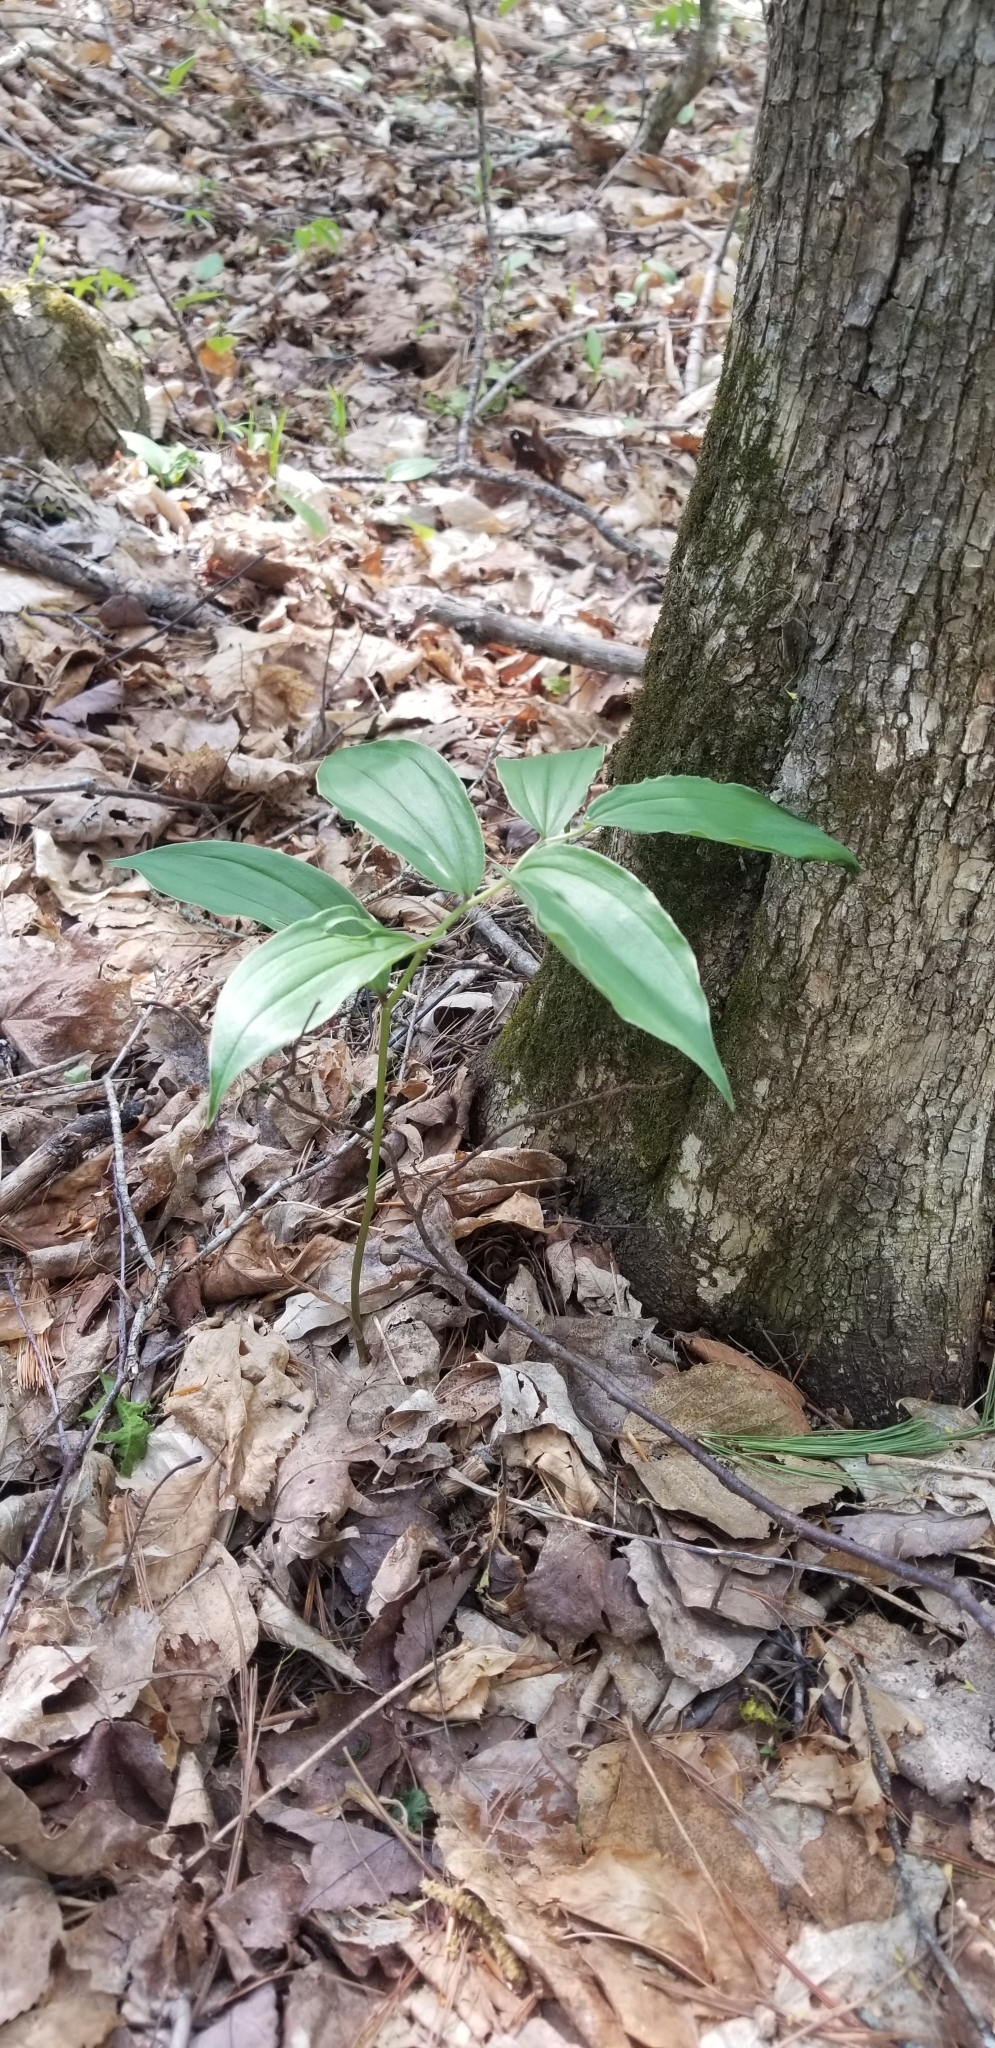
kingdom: Plantae
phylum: Tracheophyta
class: Liliopsida
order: Asparagales
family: Asparagaceae
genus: Maianthemum
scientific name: Maianthemum racemosum
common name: False spikenard
